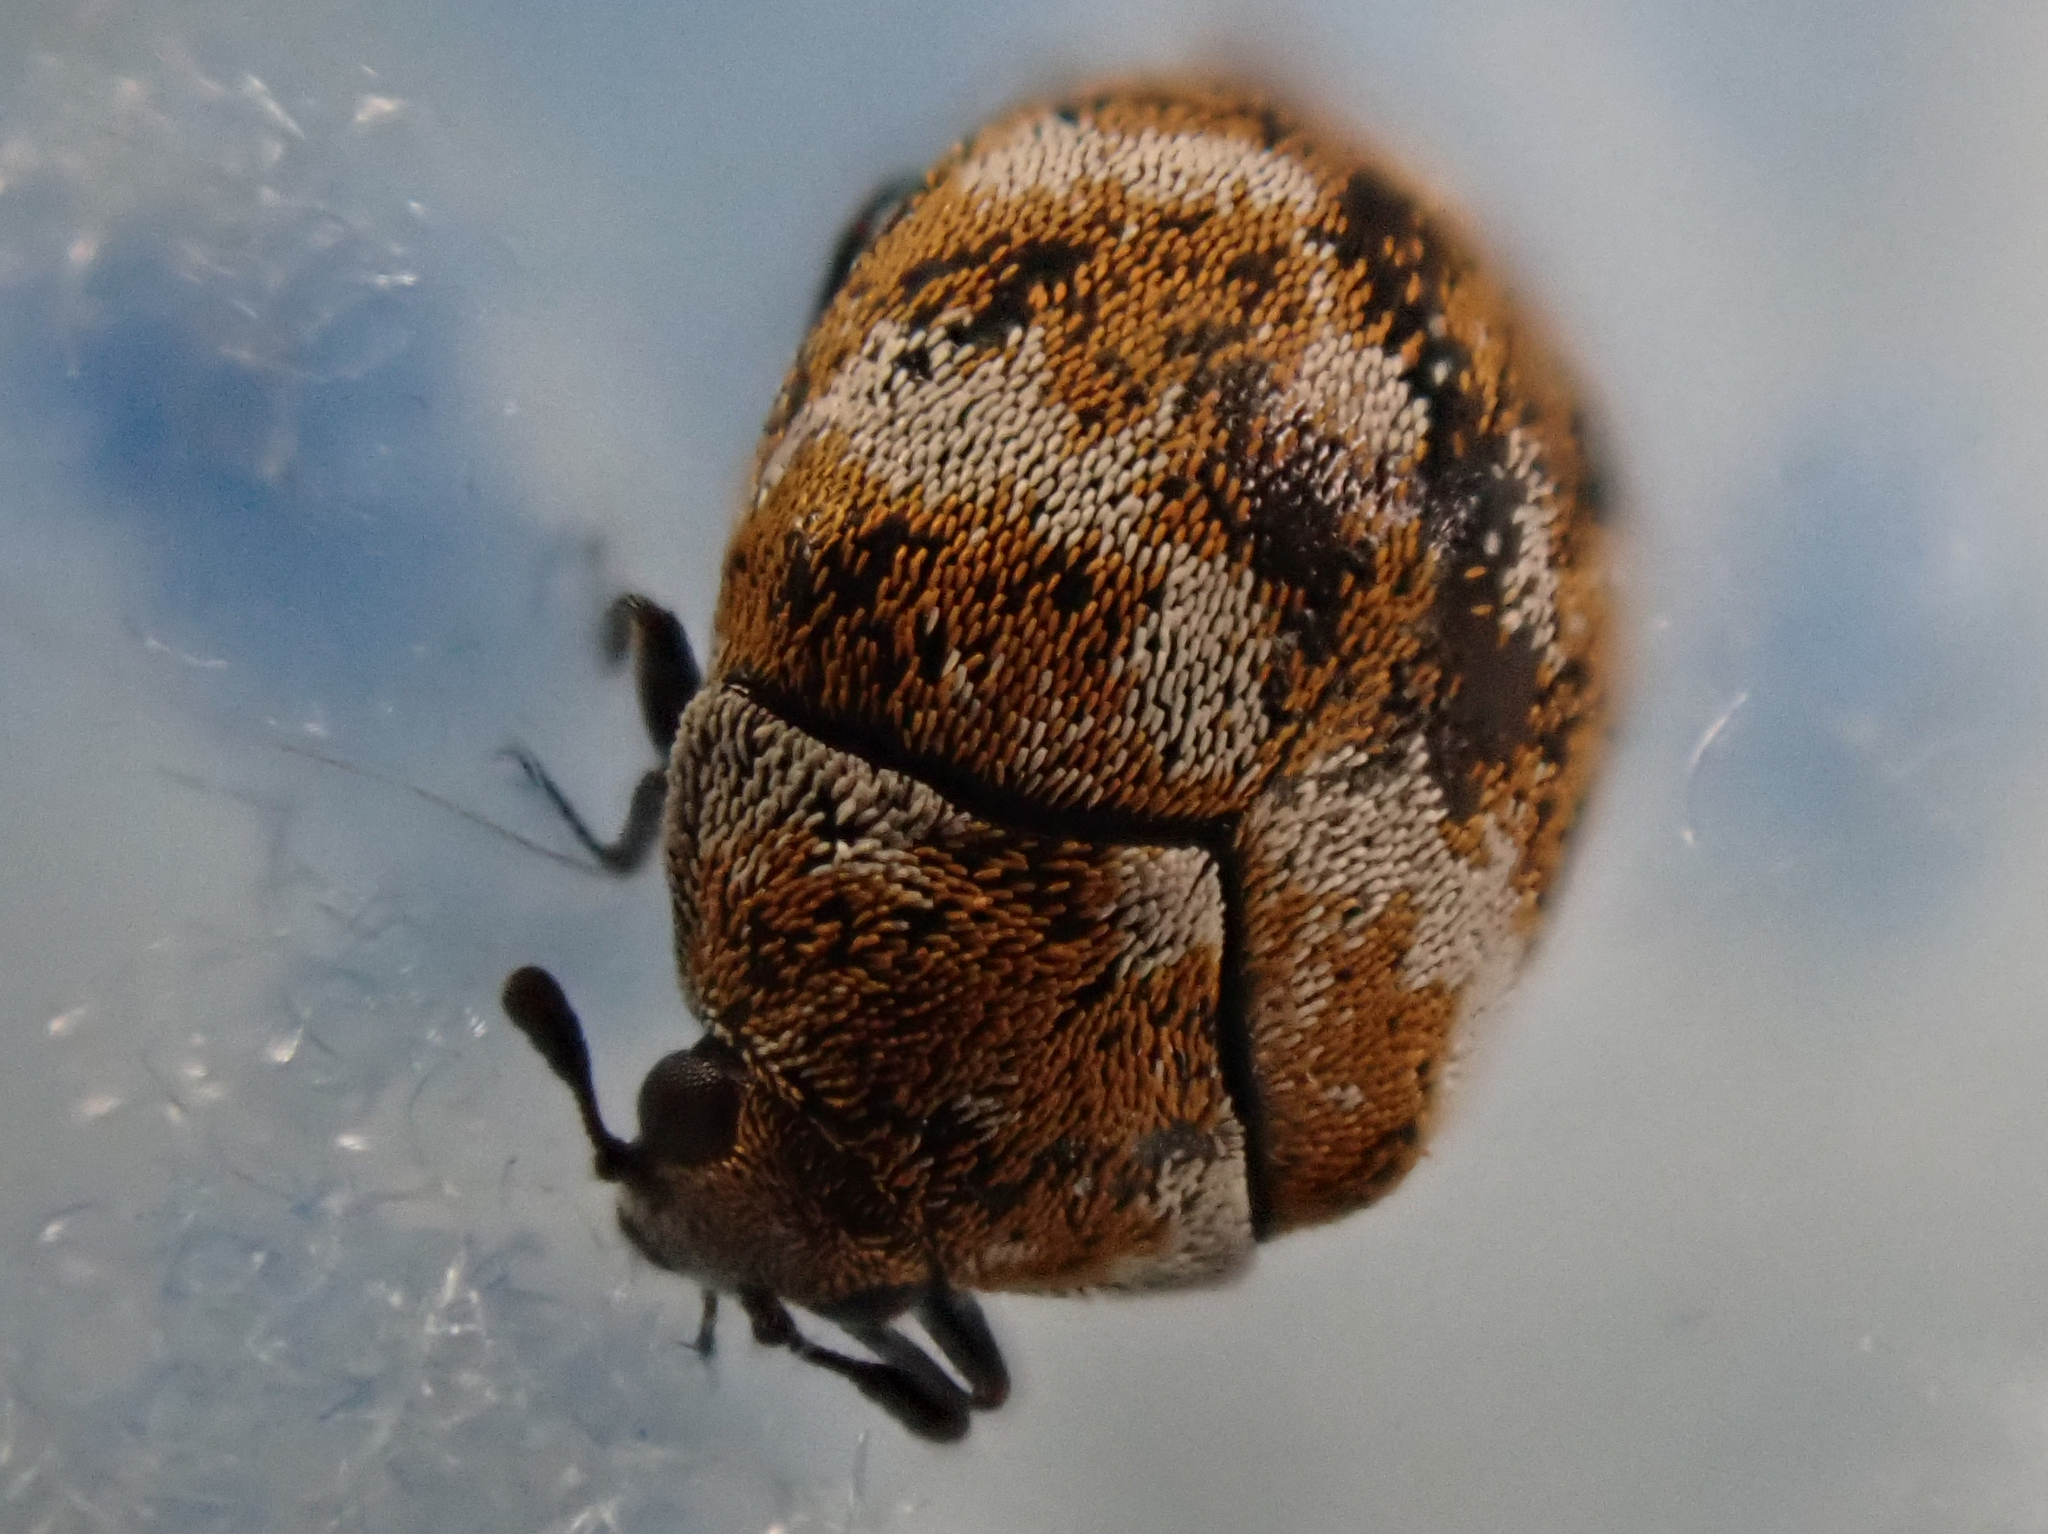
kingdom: Animalia
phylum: Arthropoda
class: Insecta
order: Coleoptera
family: Dermestidae
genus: Anthrenus
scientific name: Anthrenus verbasci
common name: Varied carpet beetle
